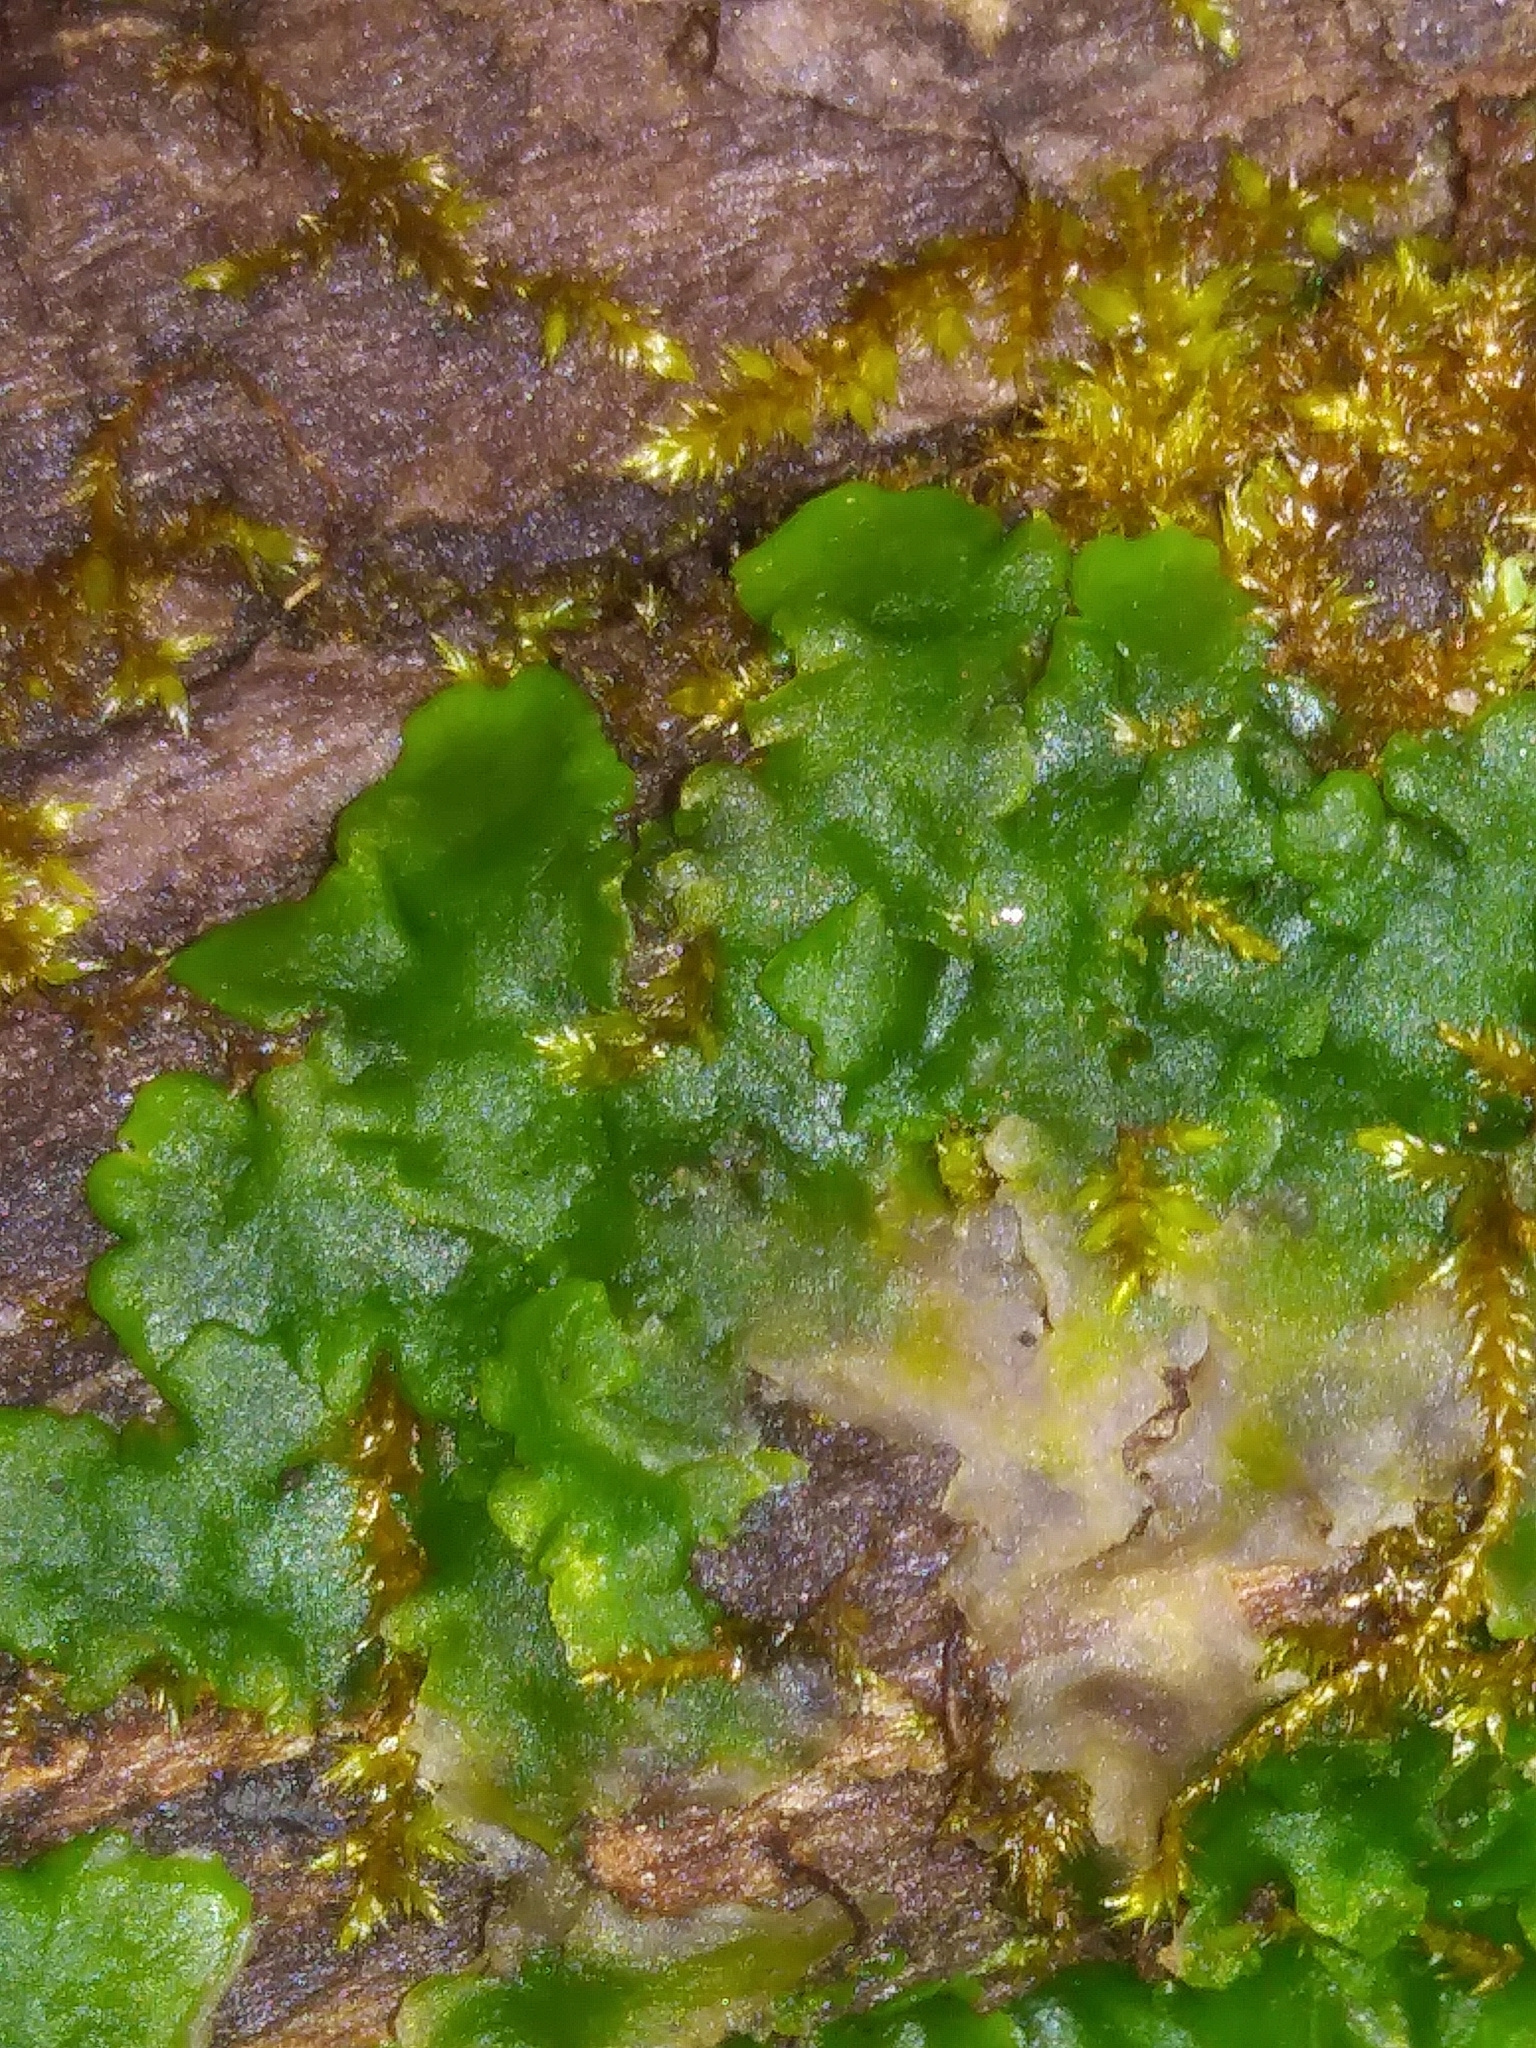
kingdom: Plantae
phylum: Marchantiophyta
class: Jungermanniopsida
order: Metzgeriales
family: Aneuraceae
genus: Aneura
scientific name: Aneura pinguis
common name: Common greasewort
